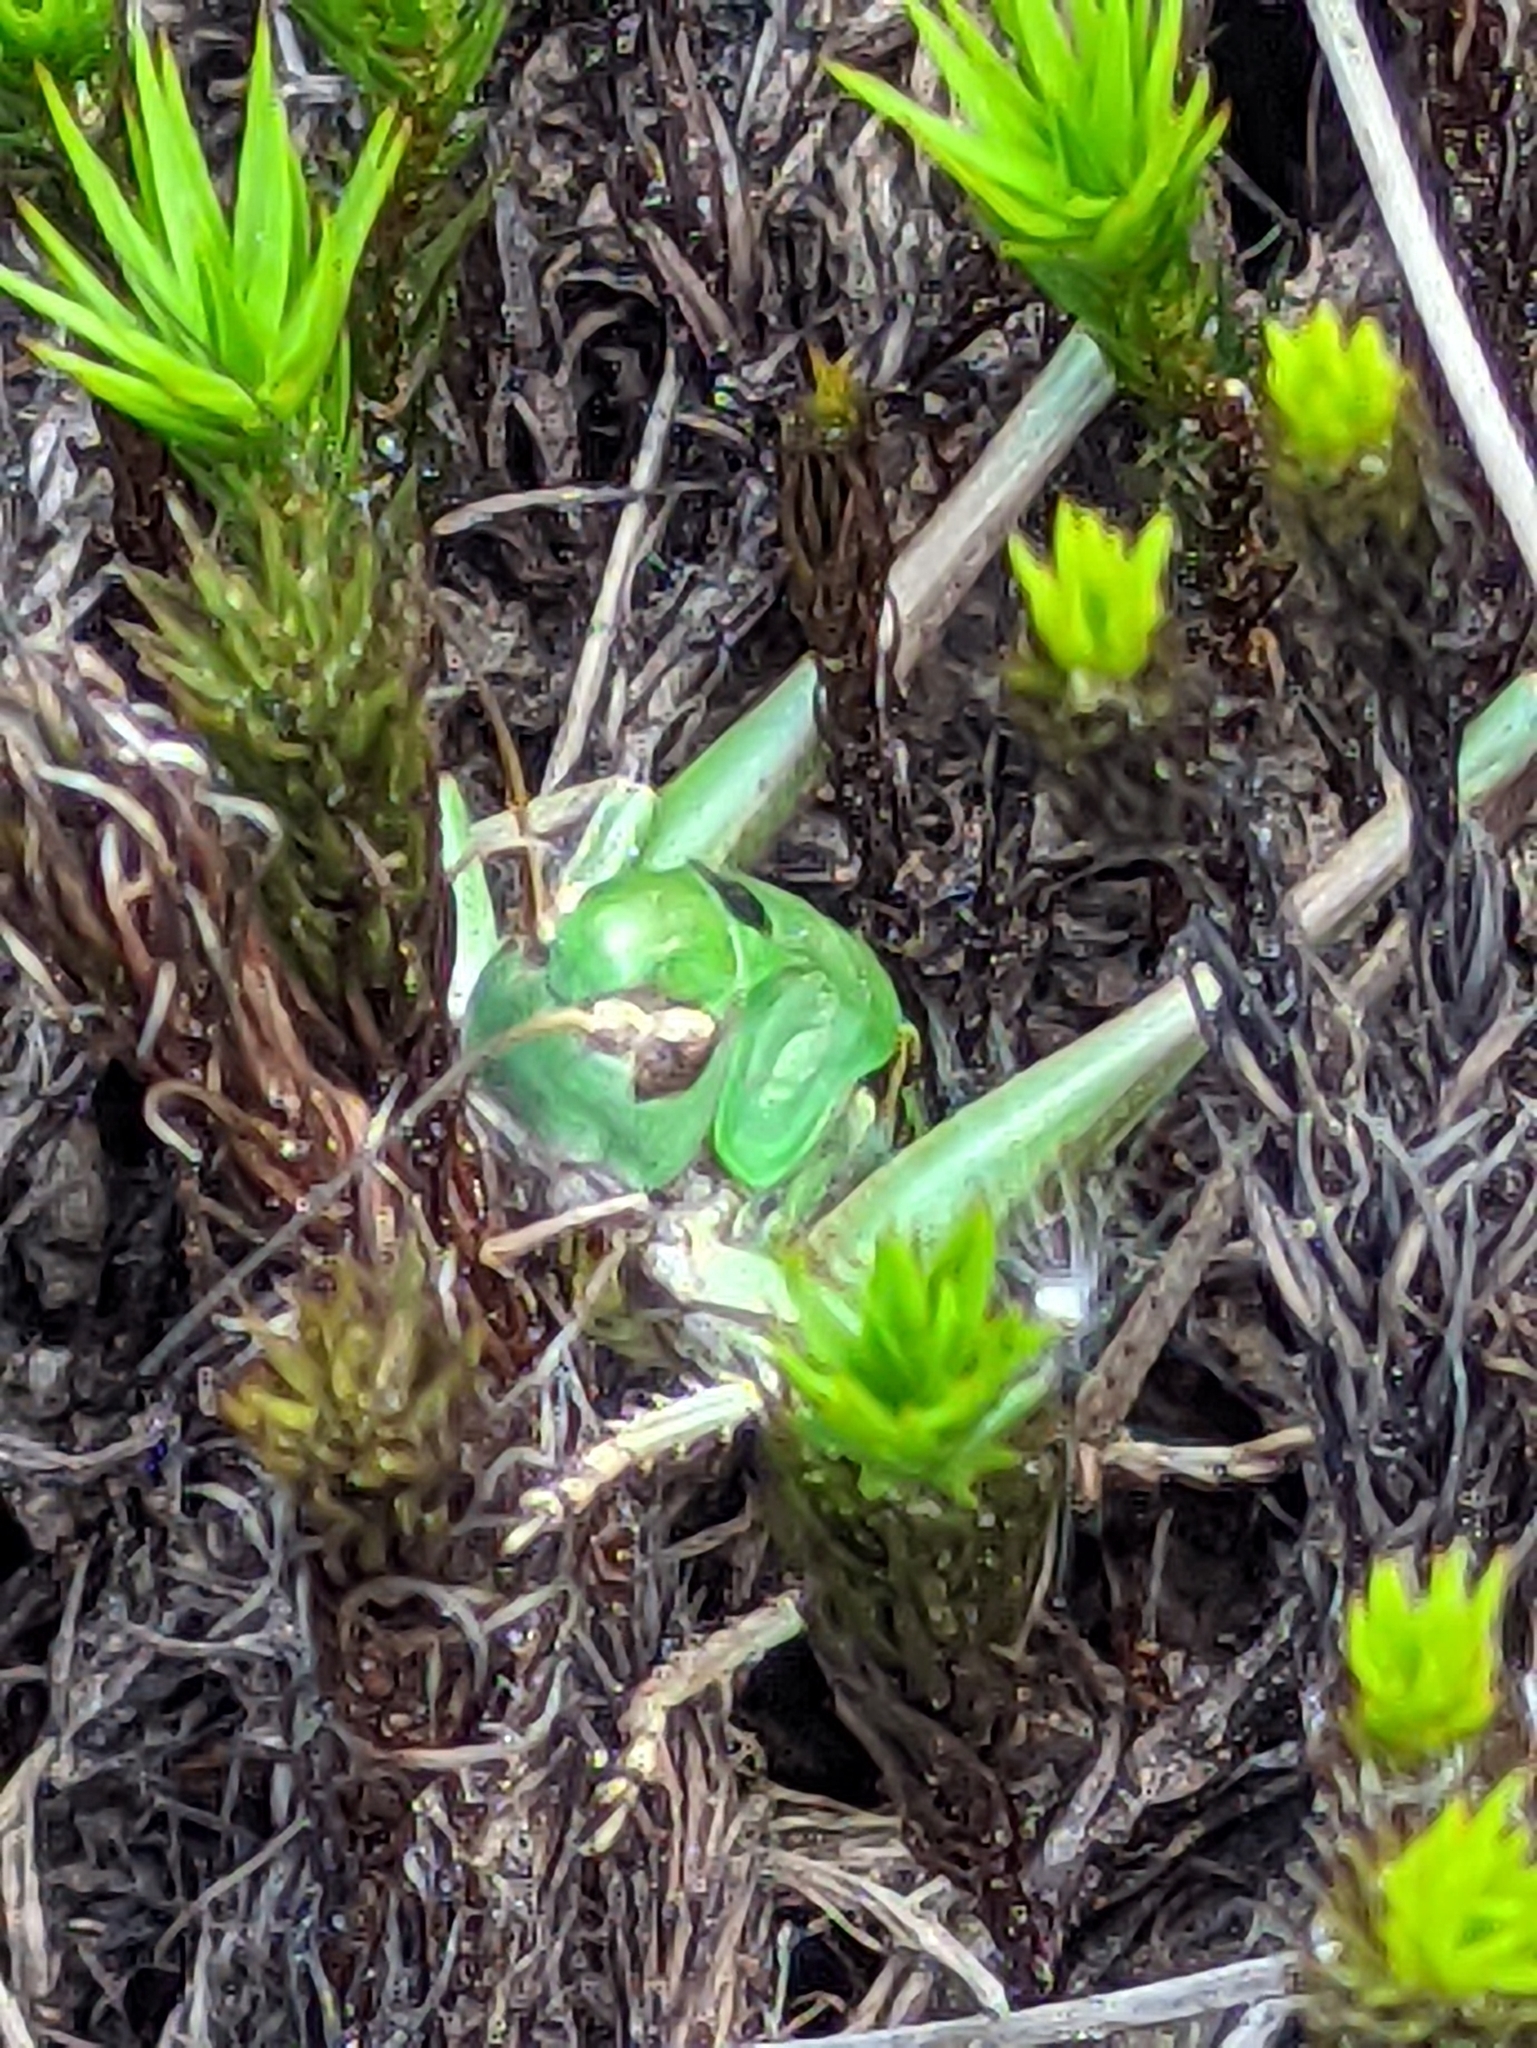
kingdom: Animalia
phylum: Arthropoda
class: Insecta
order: Orthoptera
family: Tettigoniidae
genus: Decticus
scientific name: Decticus verrucivorus
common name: Wart-biter
